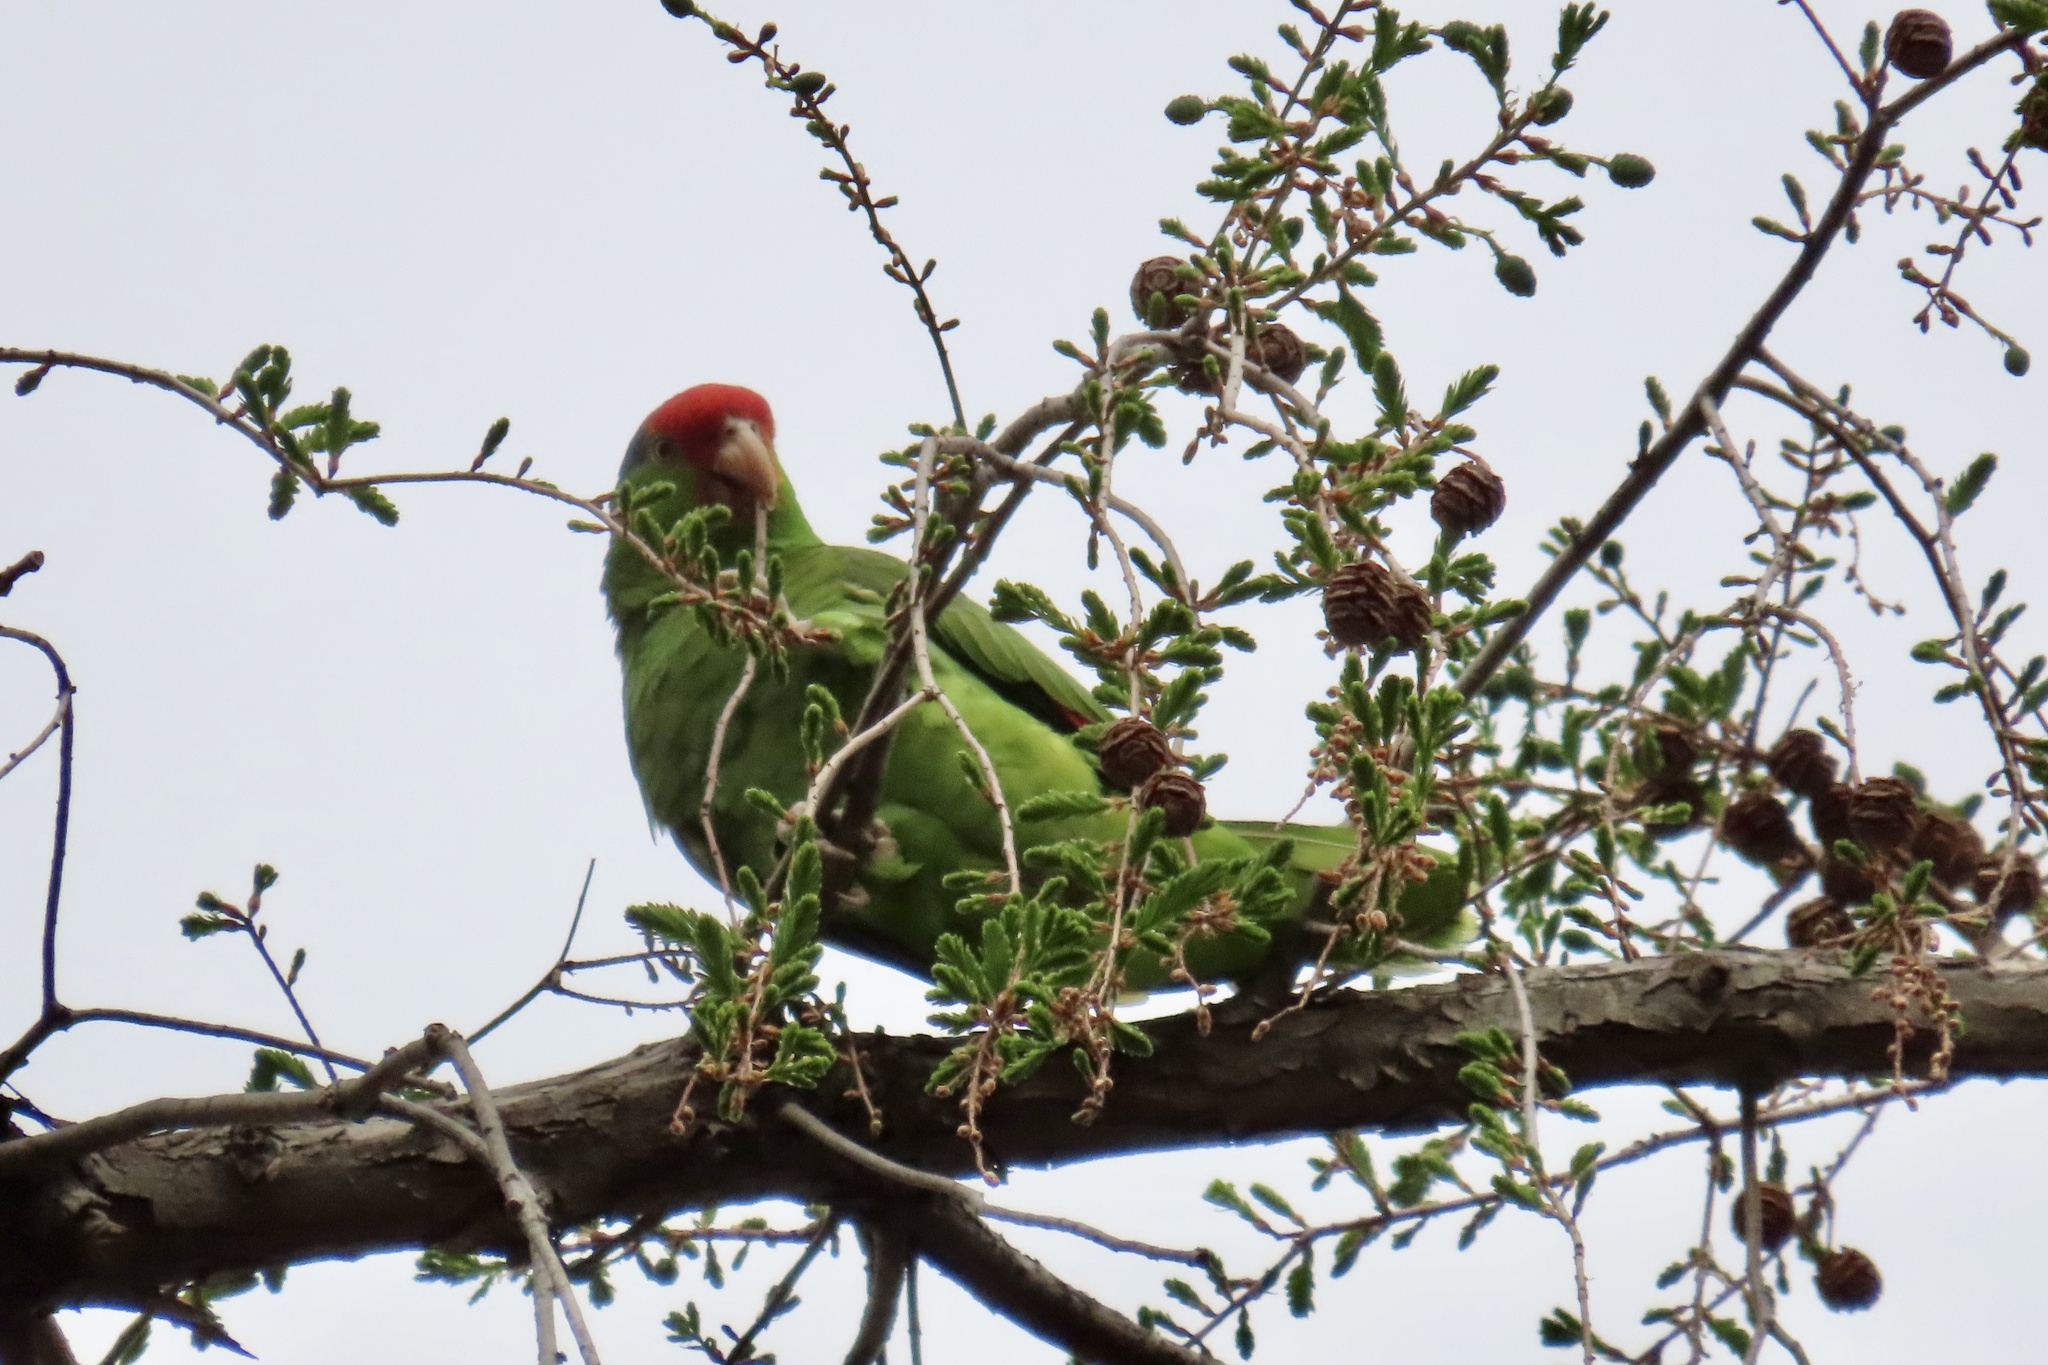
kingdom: Animalia
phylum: Chordata
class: Aves
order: Psittaciformes
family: Psittacidae
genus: Amazona
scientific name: Amazona viridigenalis
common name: Red-crowned amazon
